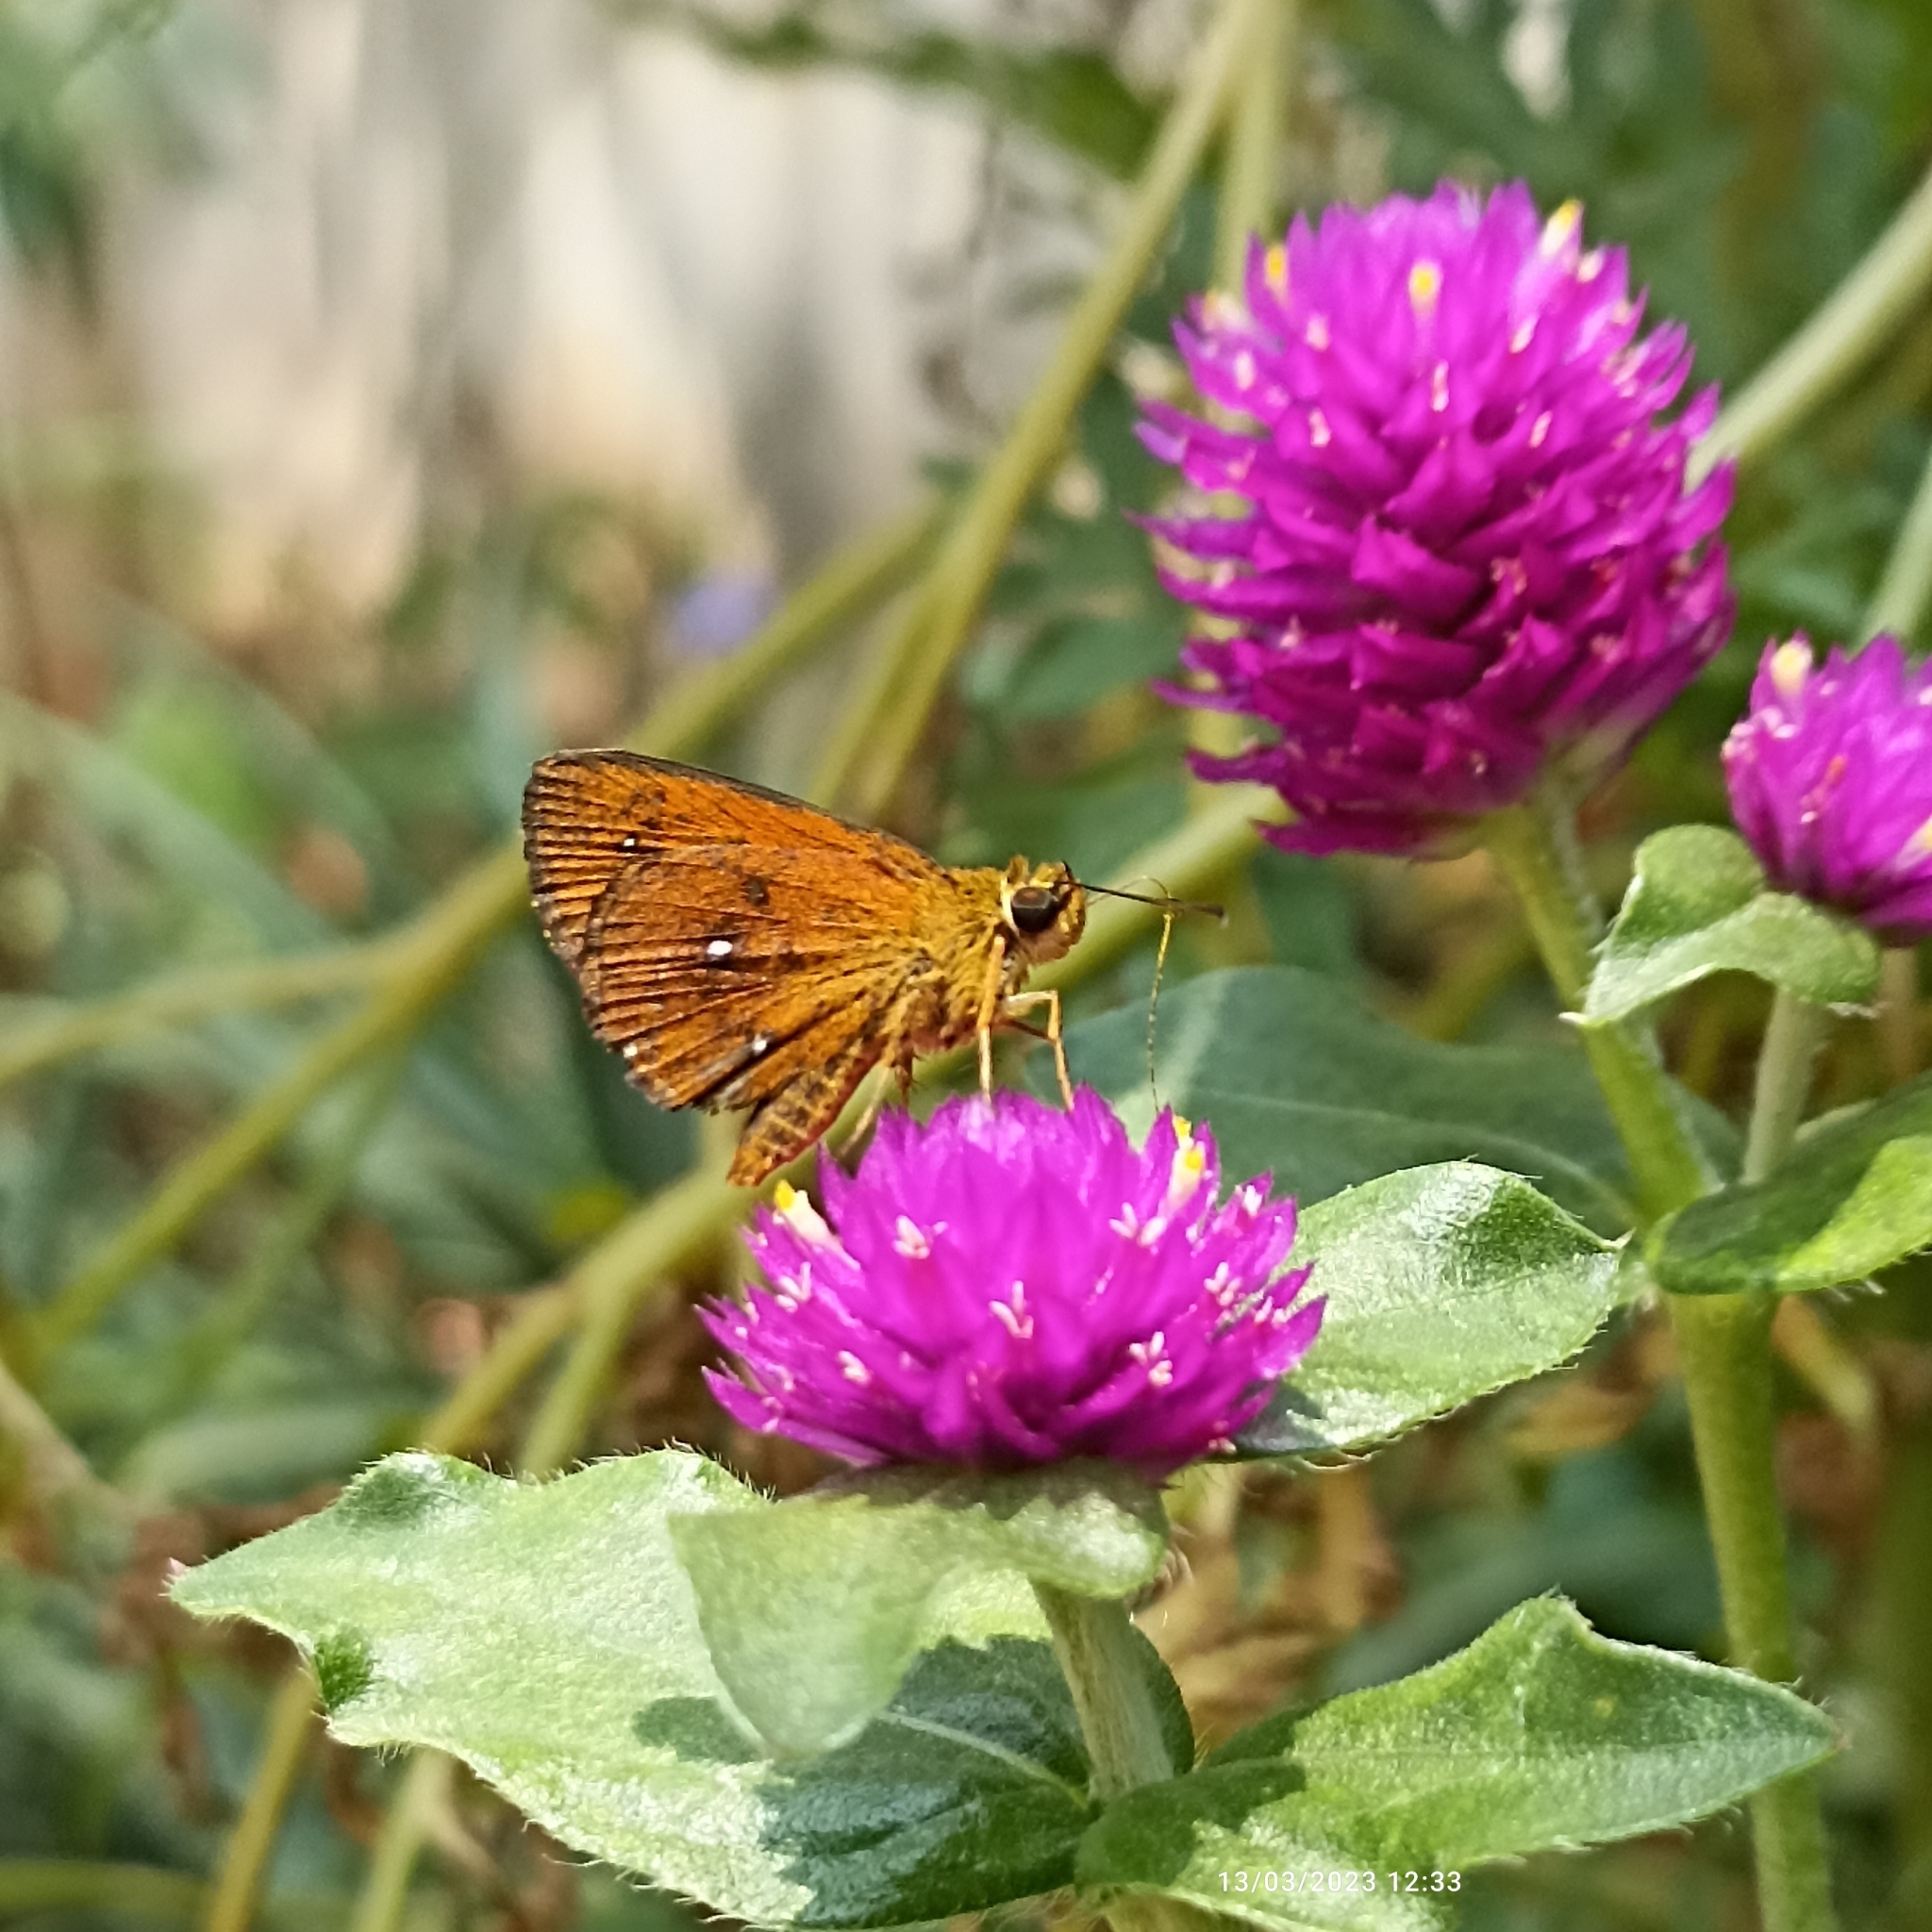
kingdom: Animalia
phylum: Arthropoda
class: Insecta
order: Lepidoptera
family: Hesperiidae
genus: Iambrix
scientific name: Iambrix salsala
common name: Chestnut bob
